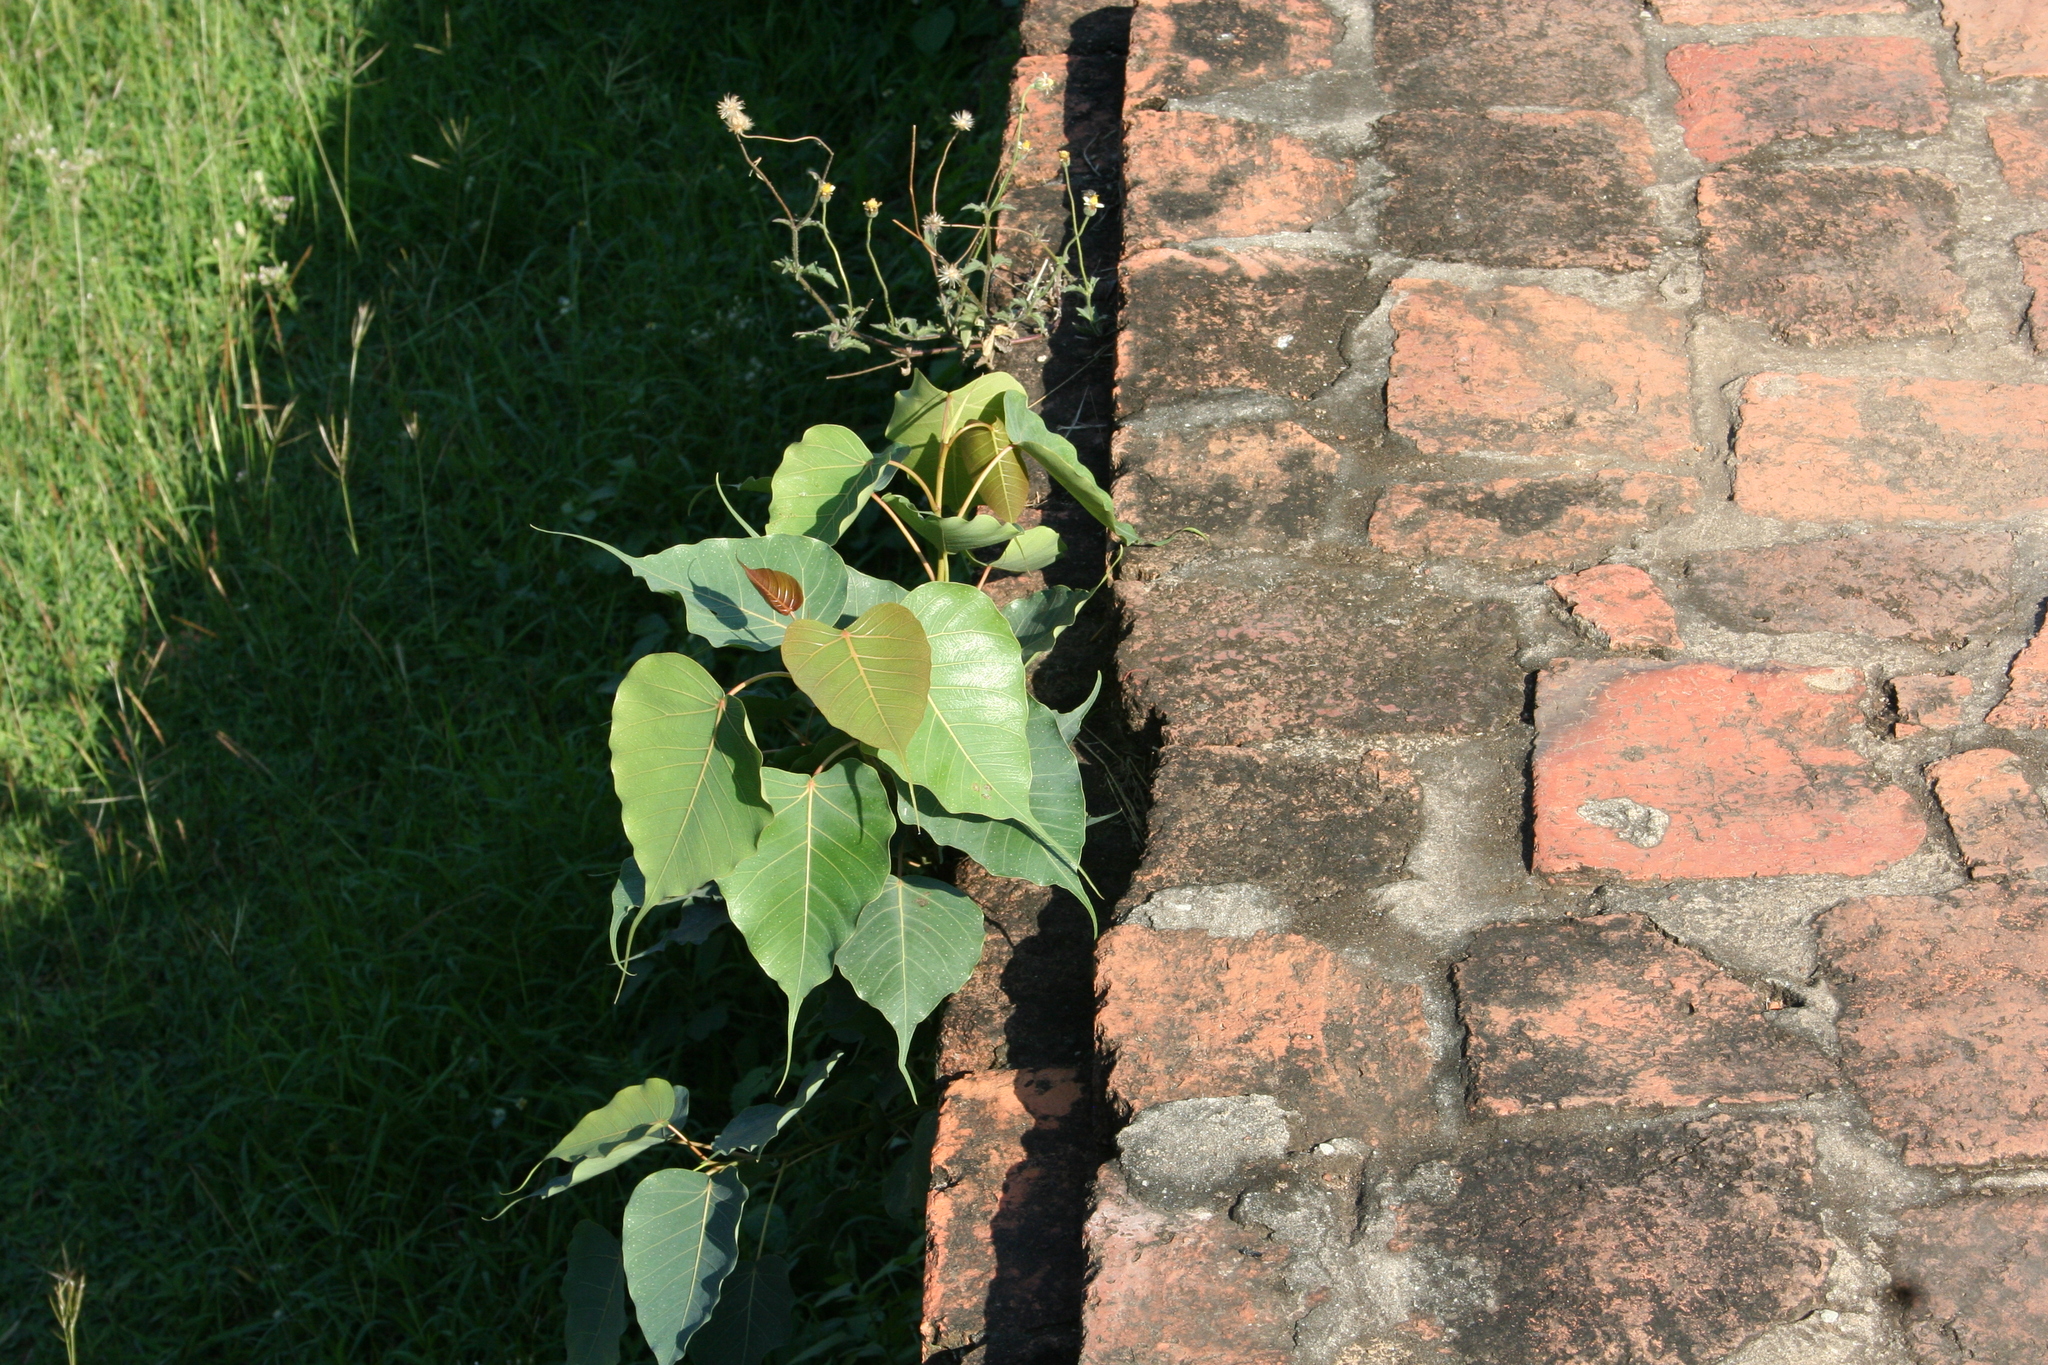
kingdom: Plantae
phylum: Tracheophyta
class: Magnoliopsida
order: Rosales
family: Moraceae
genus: Ficus
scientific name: Ficus religiosa
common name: Bodhi tree
